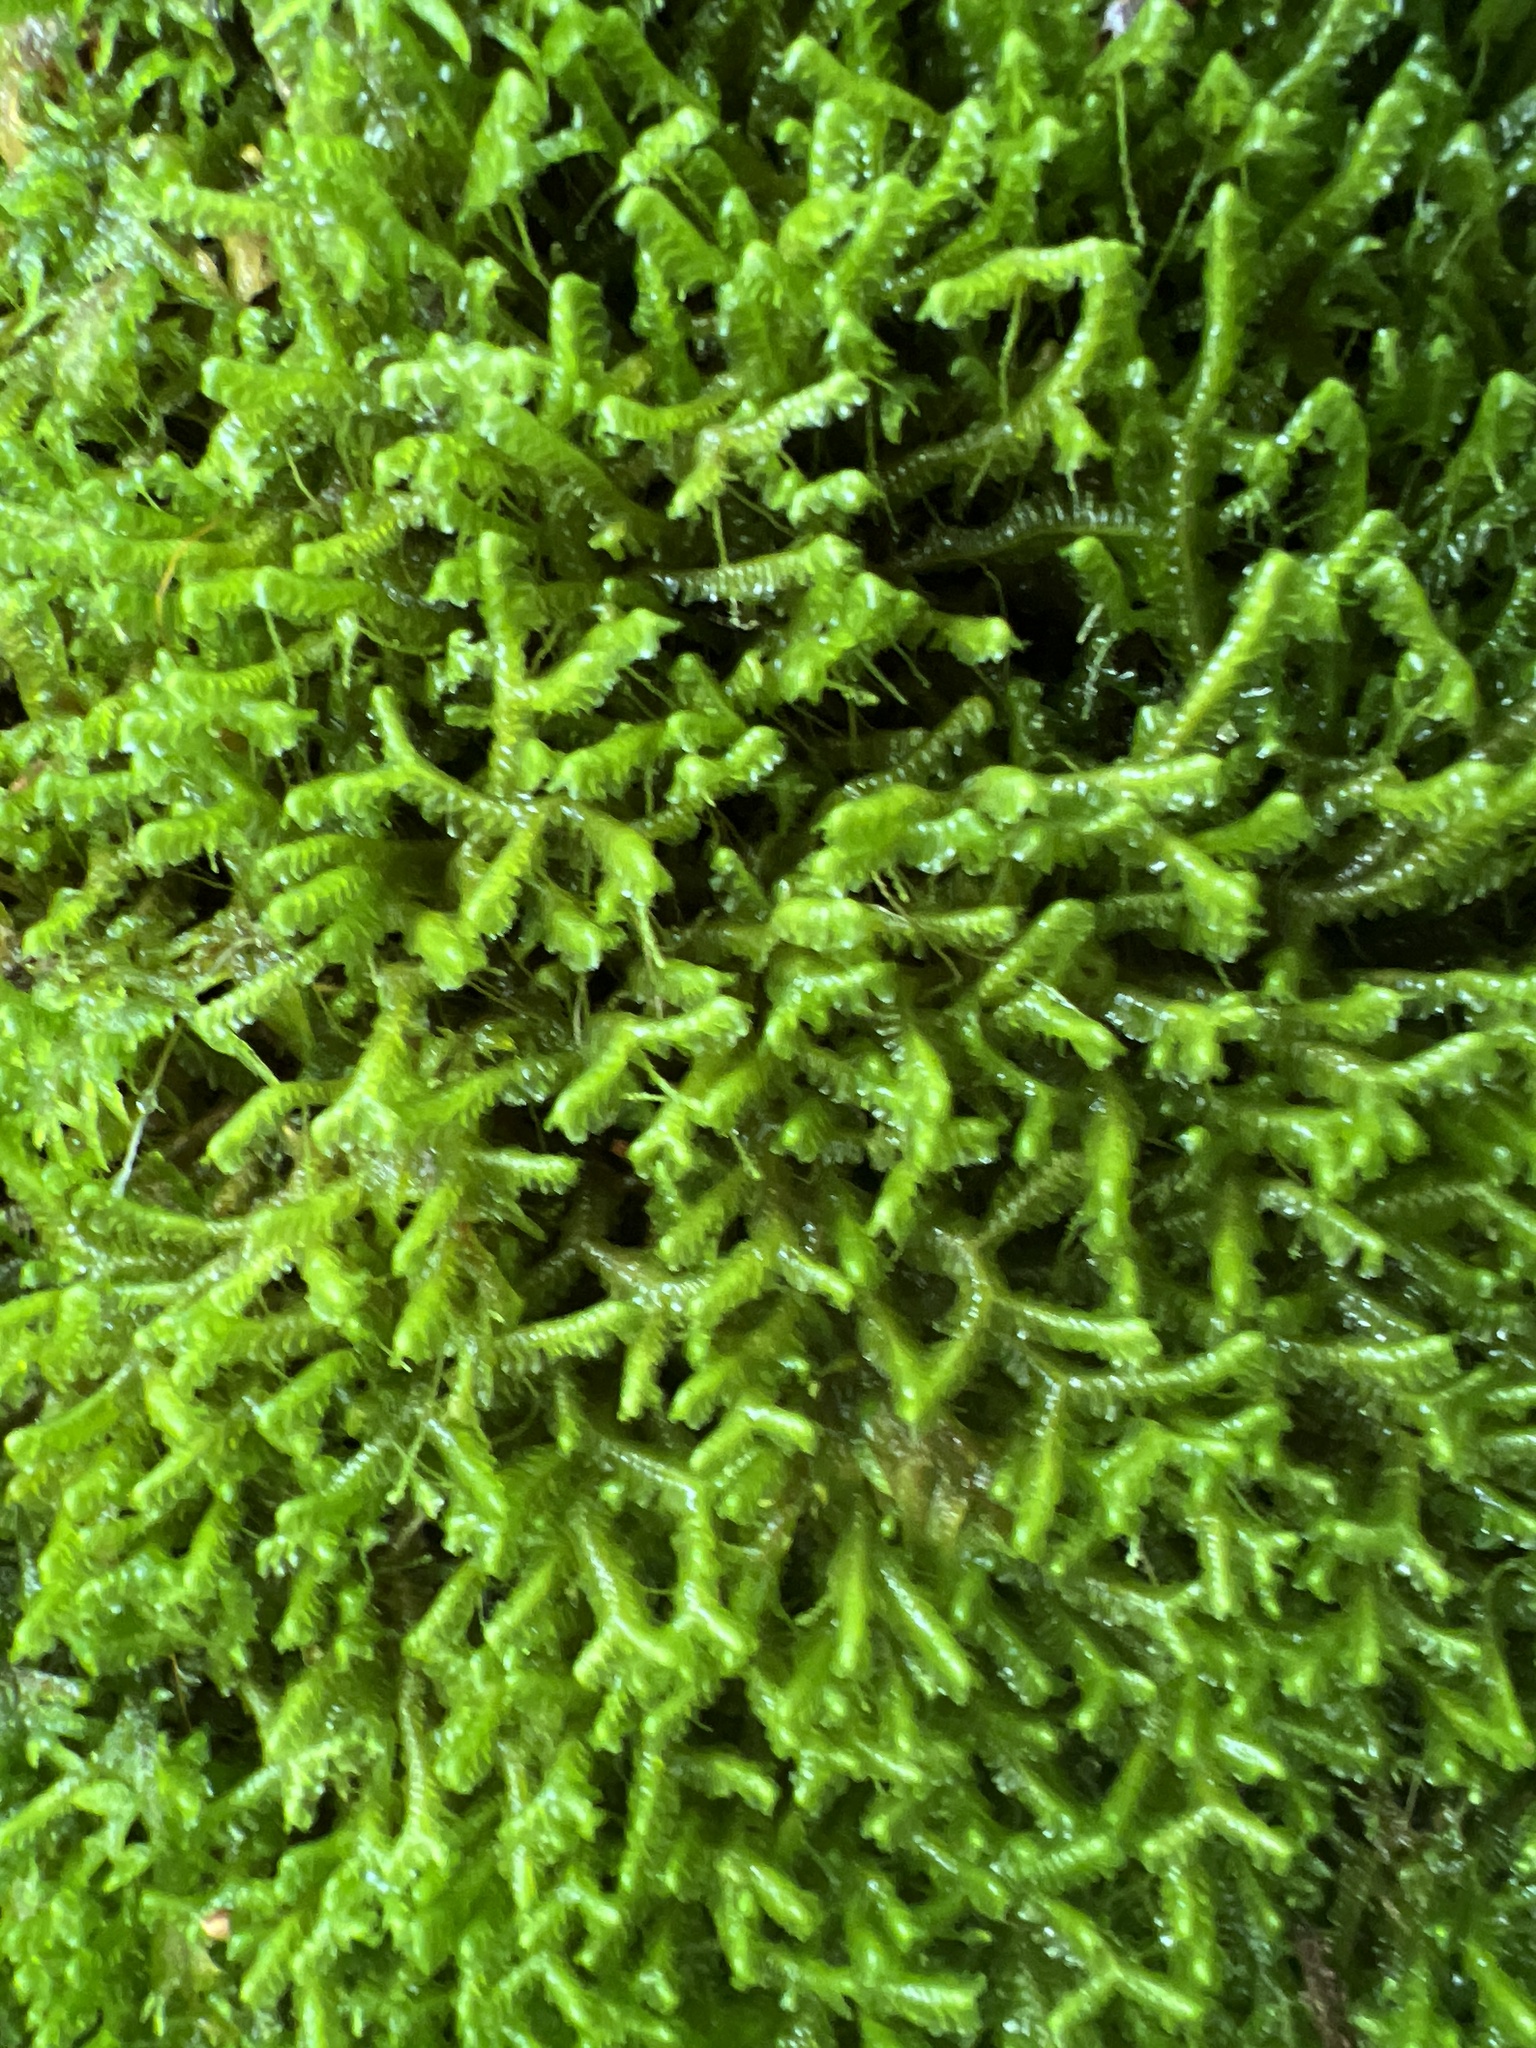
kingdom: Plantae
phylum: Marchantiophyta
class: Jungermanniopsida
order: Jungermanniales
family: Lepidoziaceae
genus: Bazzania
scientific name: Bazzania trilobata
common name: Three-lobed whipwort
